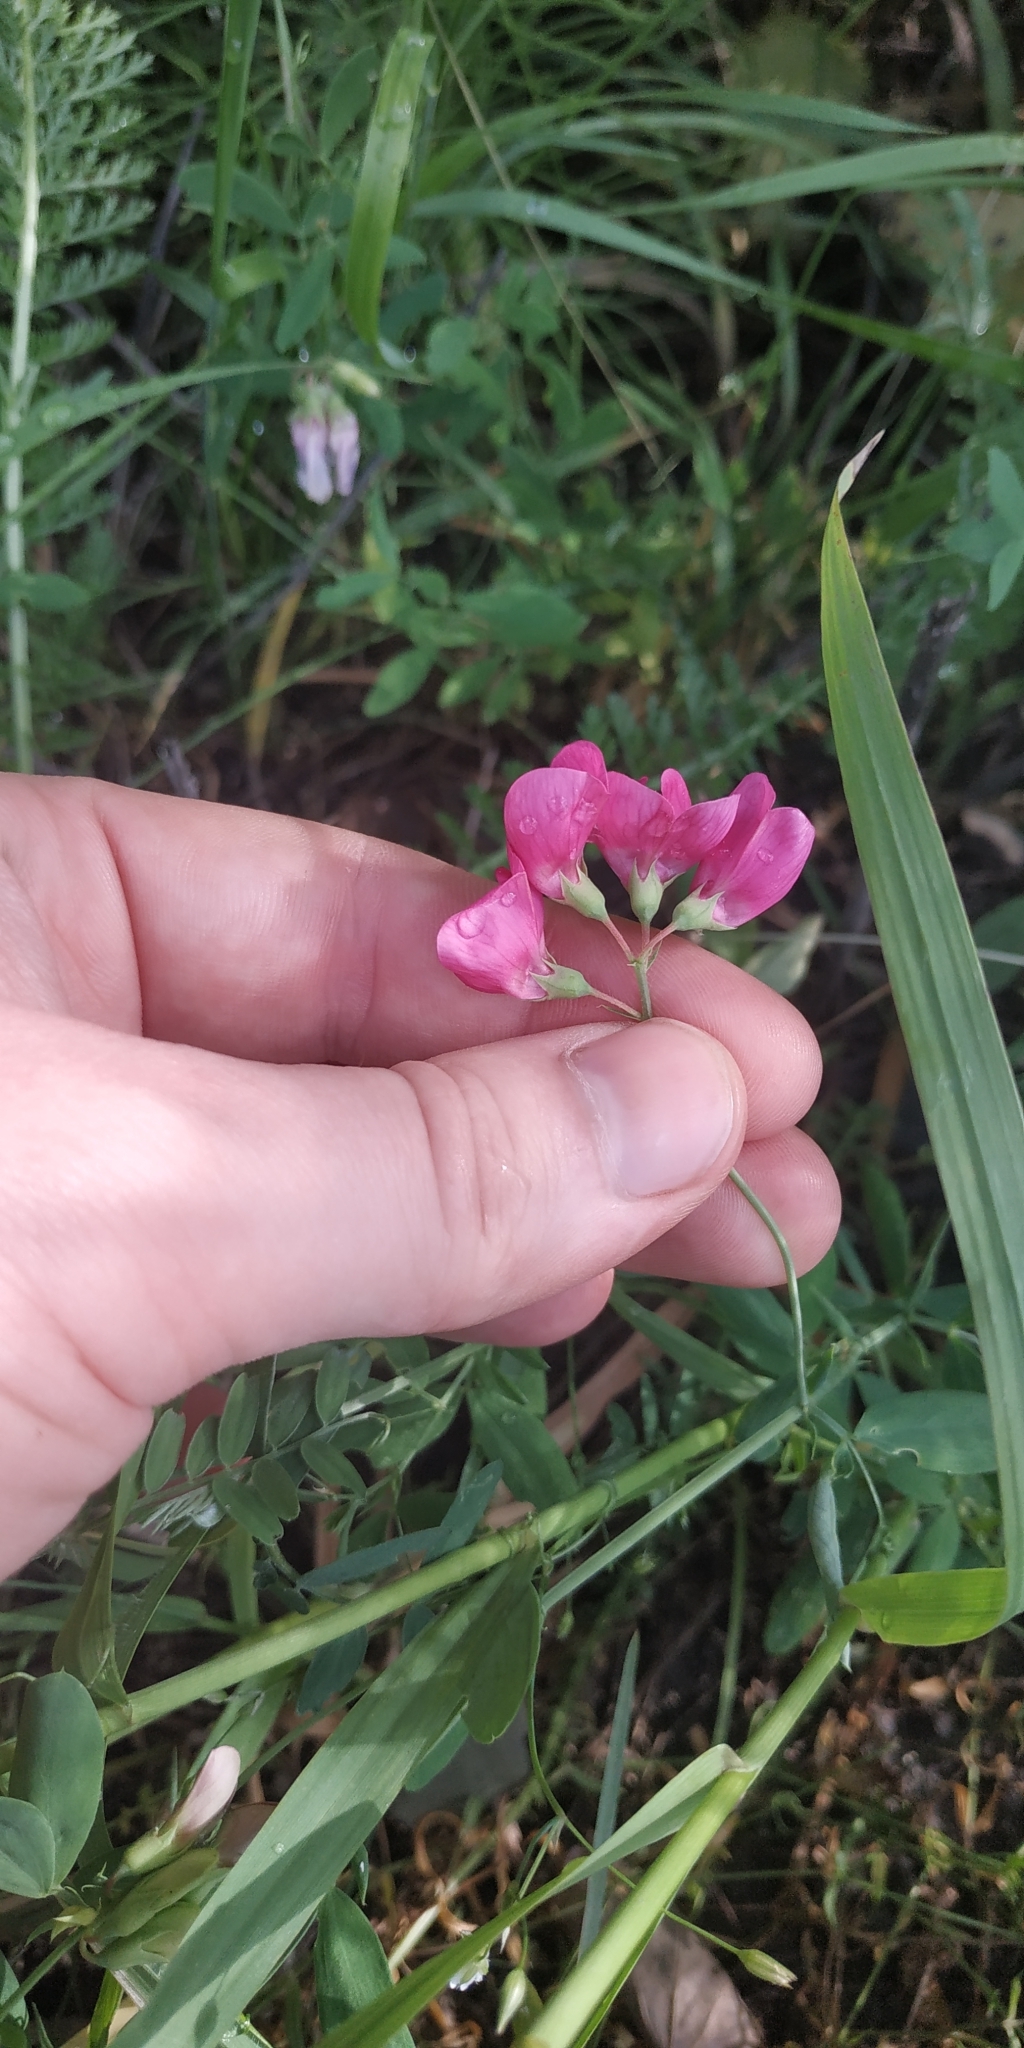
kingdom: Plantae
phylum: Tracheophyta
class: Magnoliopsida
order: Fabales
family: Fabaceae
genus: Lathyrus
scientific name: Lathyrus tuberosus
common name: Tuberous pea
